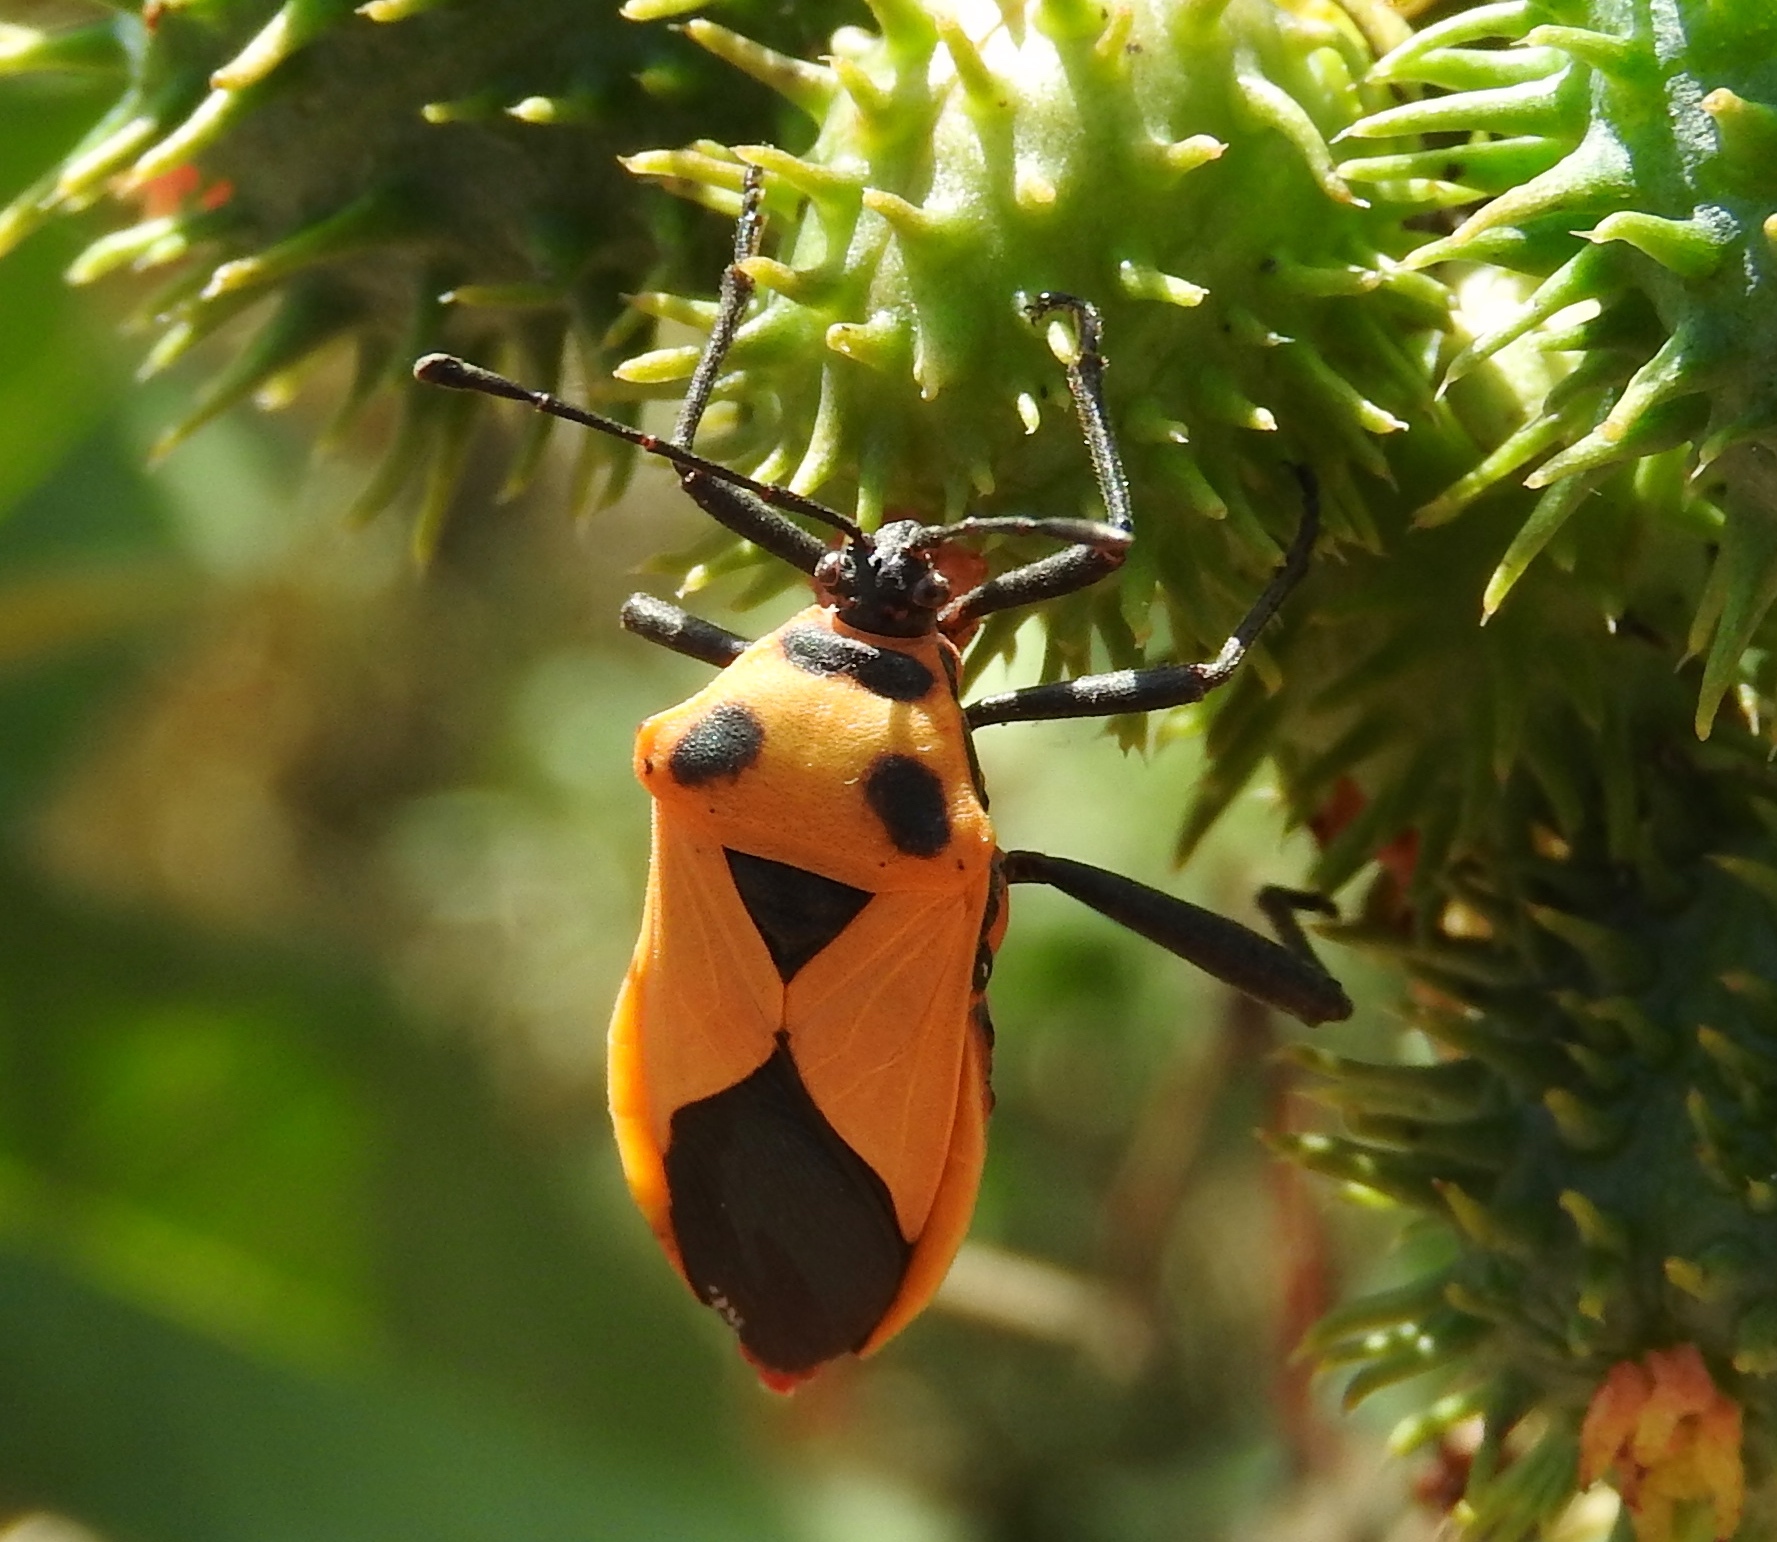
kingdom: Animalia
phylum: Arthropoda
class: Insecta
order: Hemiptera
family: Coreidae
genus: Sagotylus
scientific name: Sagotylus confluens
